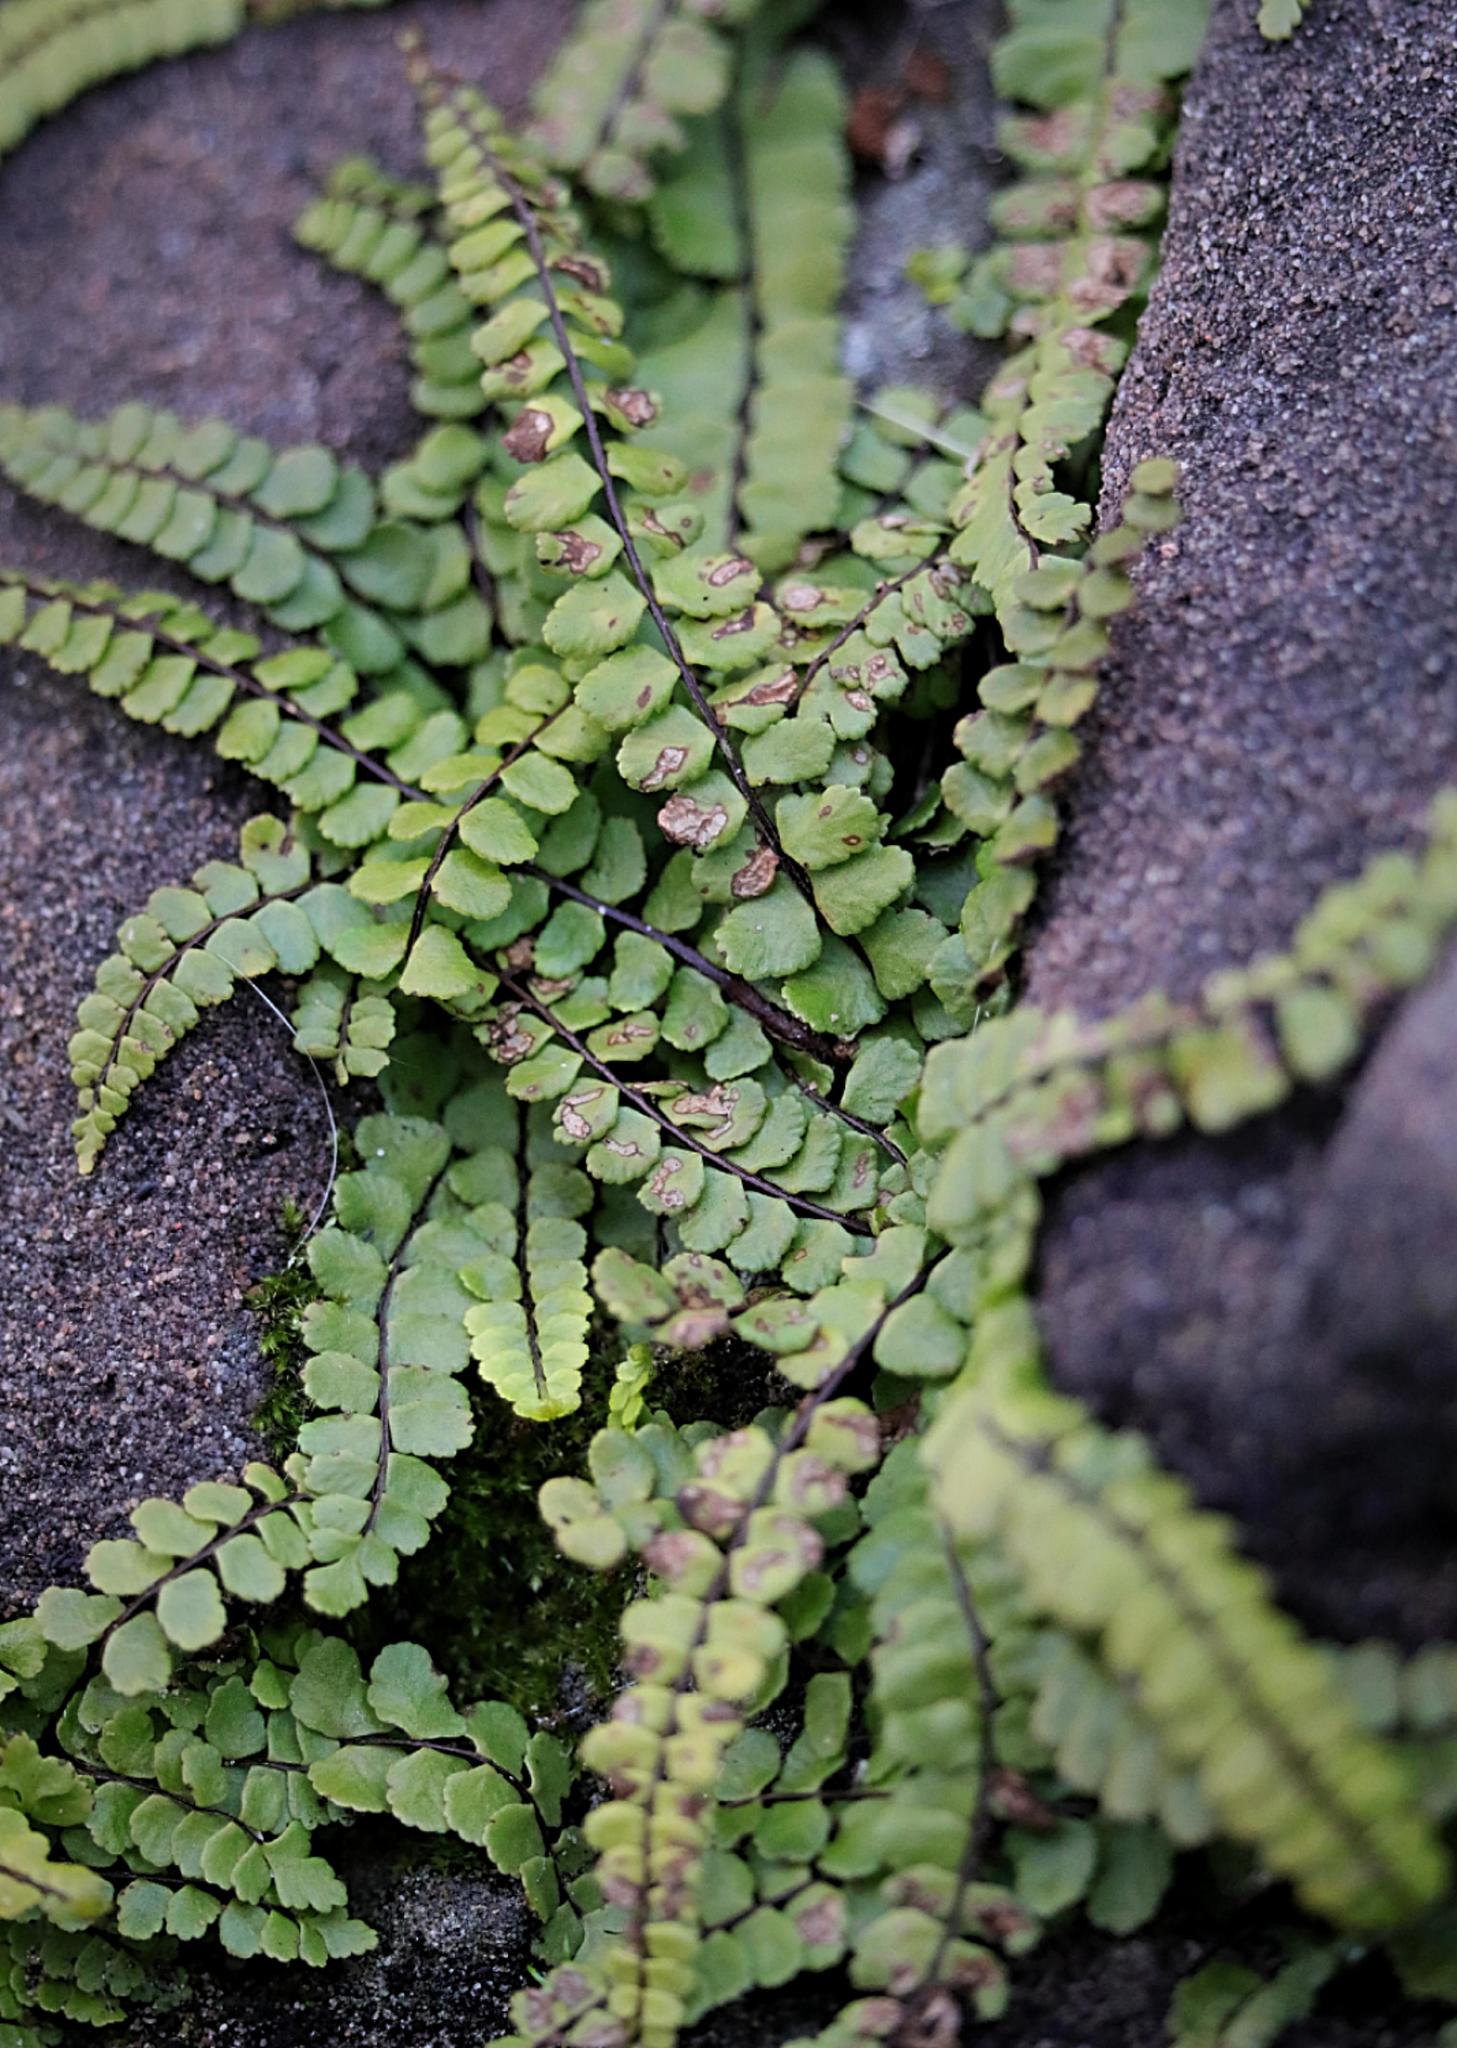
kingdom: Plantae
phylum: Tracheophyta
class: Polypodiopsida
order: Polypodiales
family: Aspleniaceae
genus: Asplenium
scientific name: Asplenium trichomanes
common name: Maidenhair spleenwort
